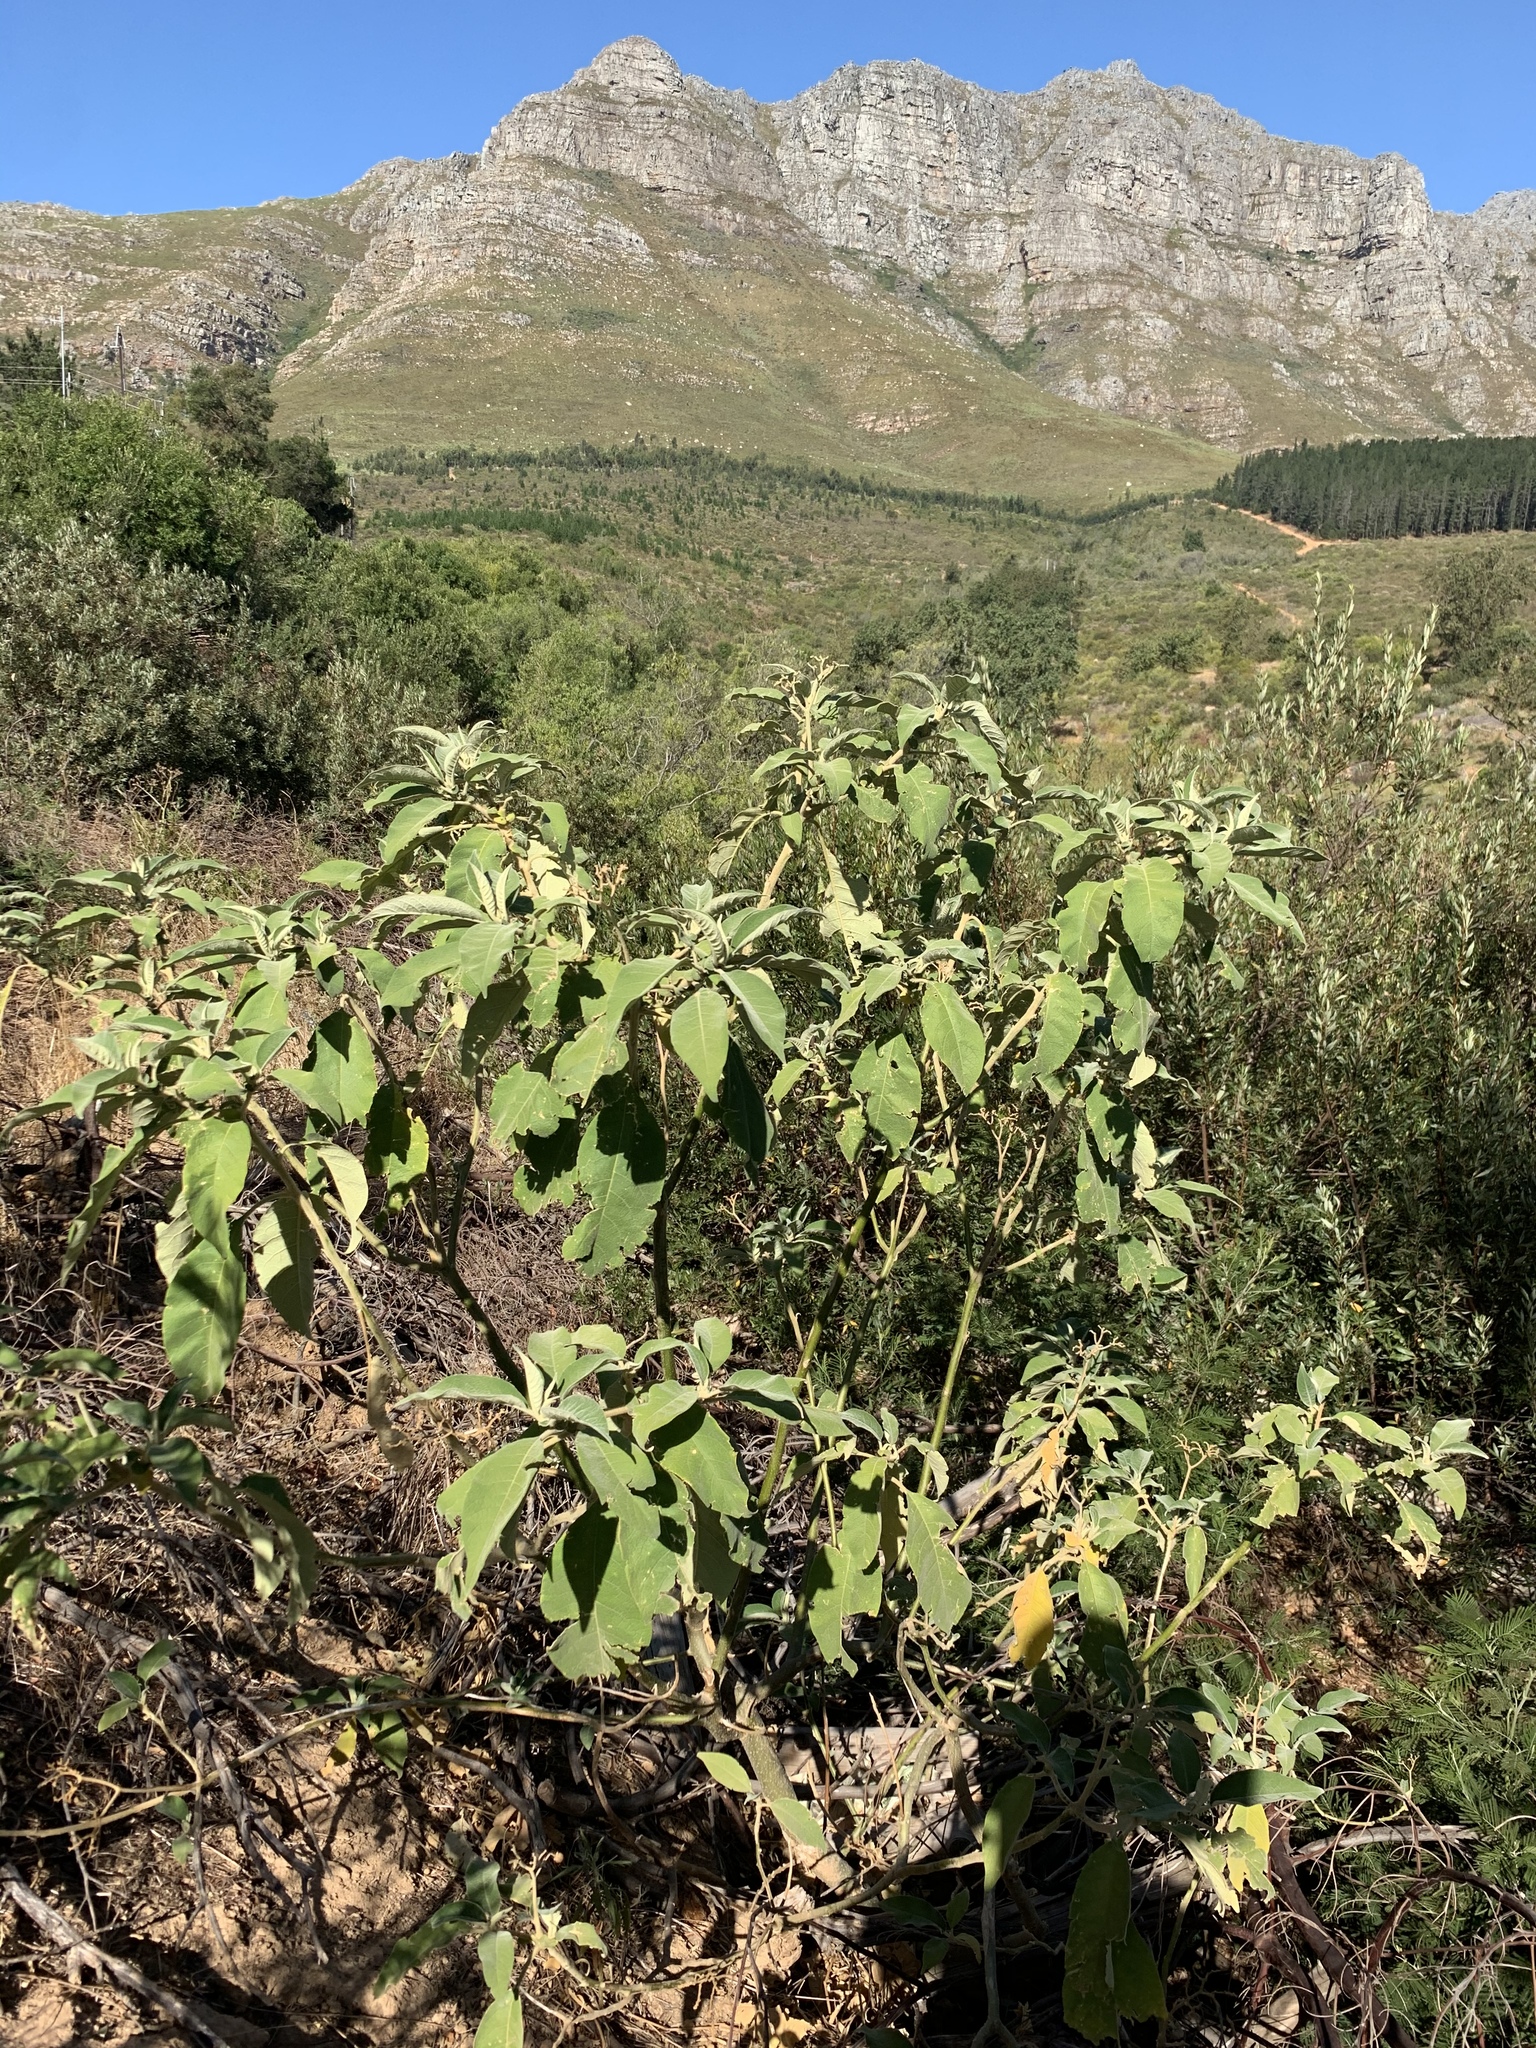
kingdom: Plantae
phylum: Tracheophyta
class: Magnoliopsida
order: Solanales
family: Solanaceae
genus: Solanum
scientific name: Solanum mauritianum
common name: Earleaf nightshade
